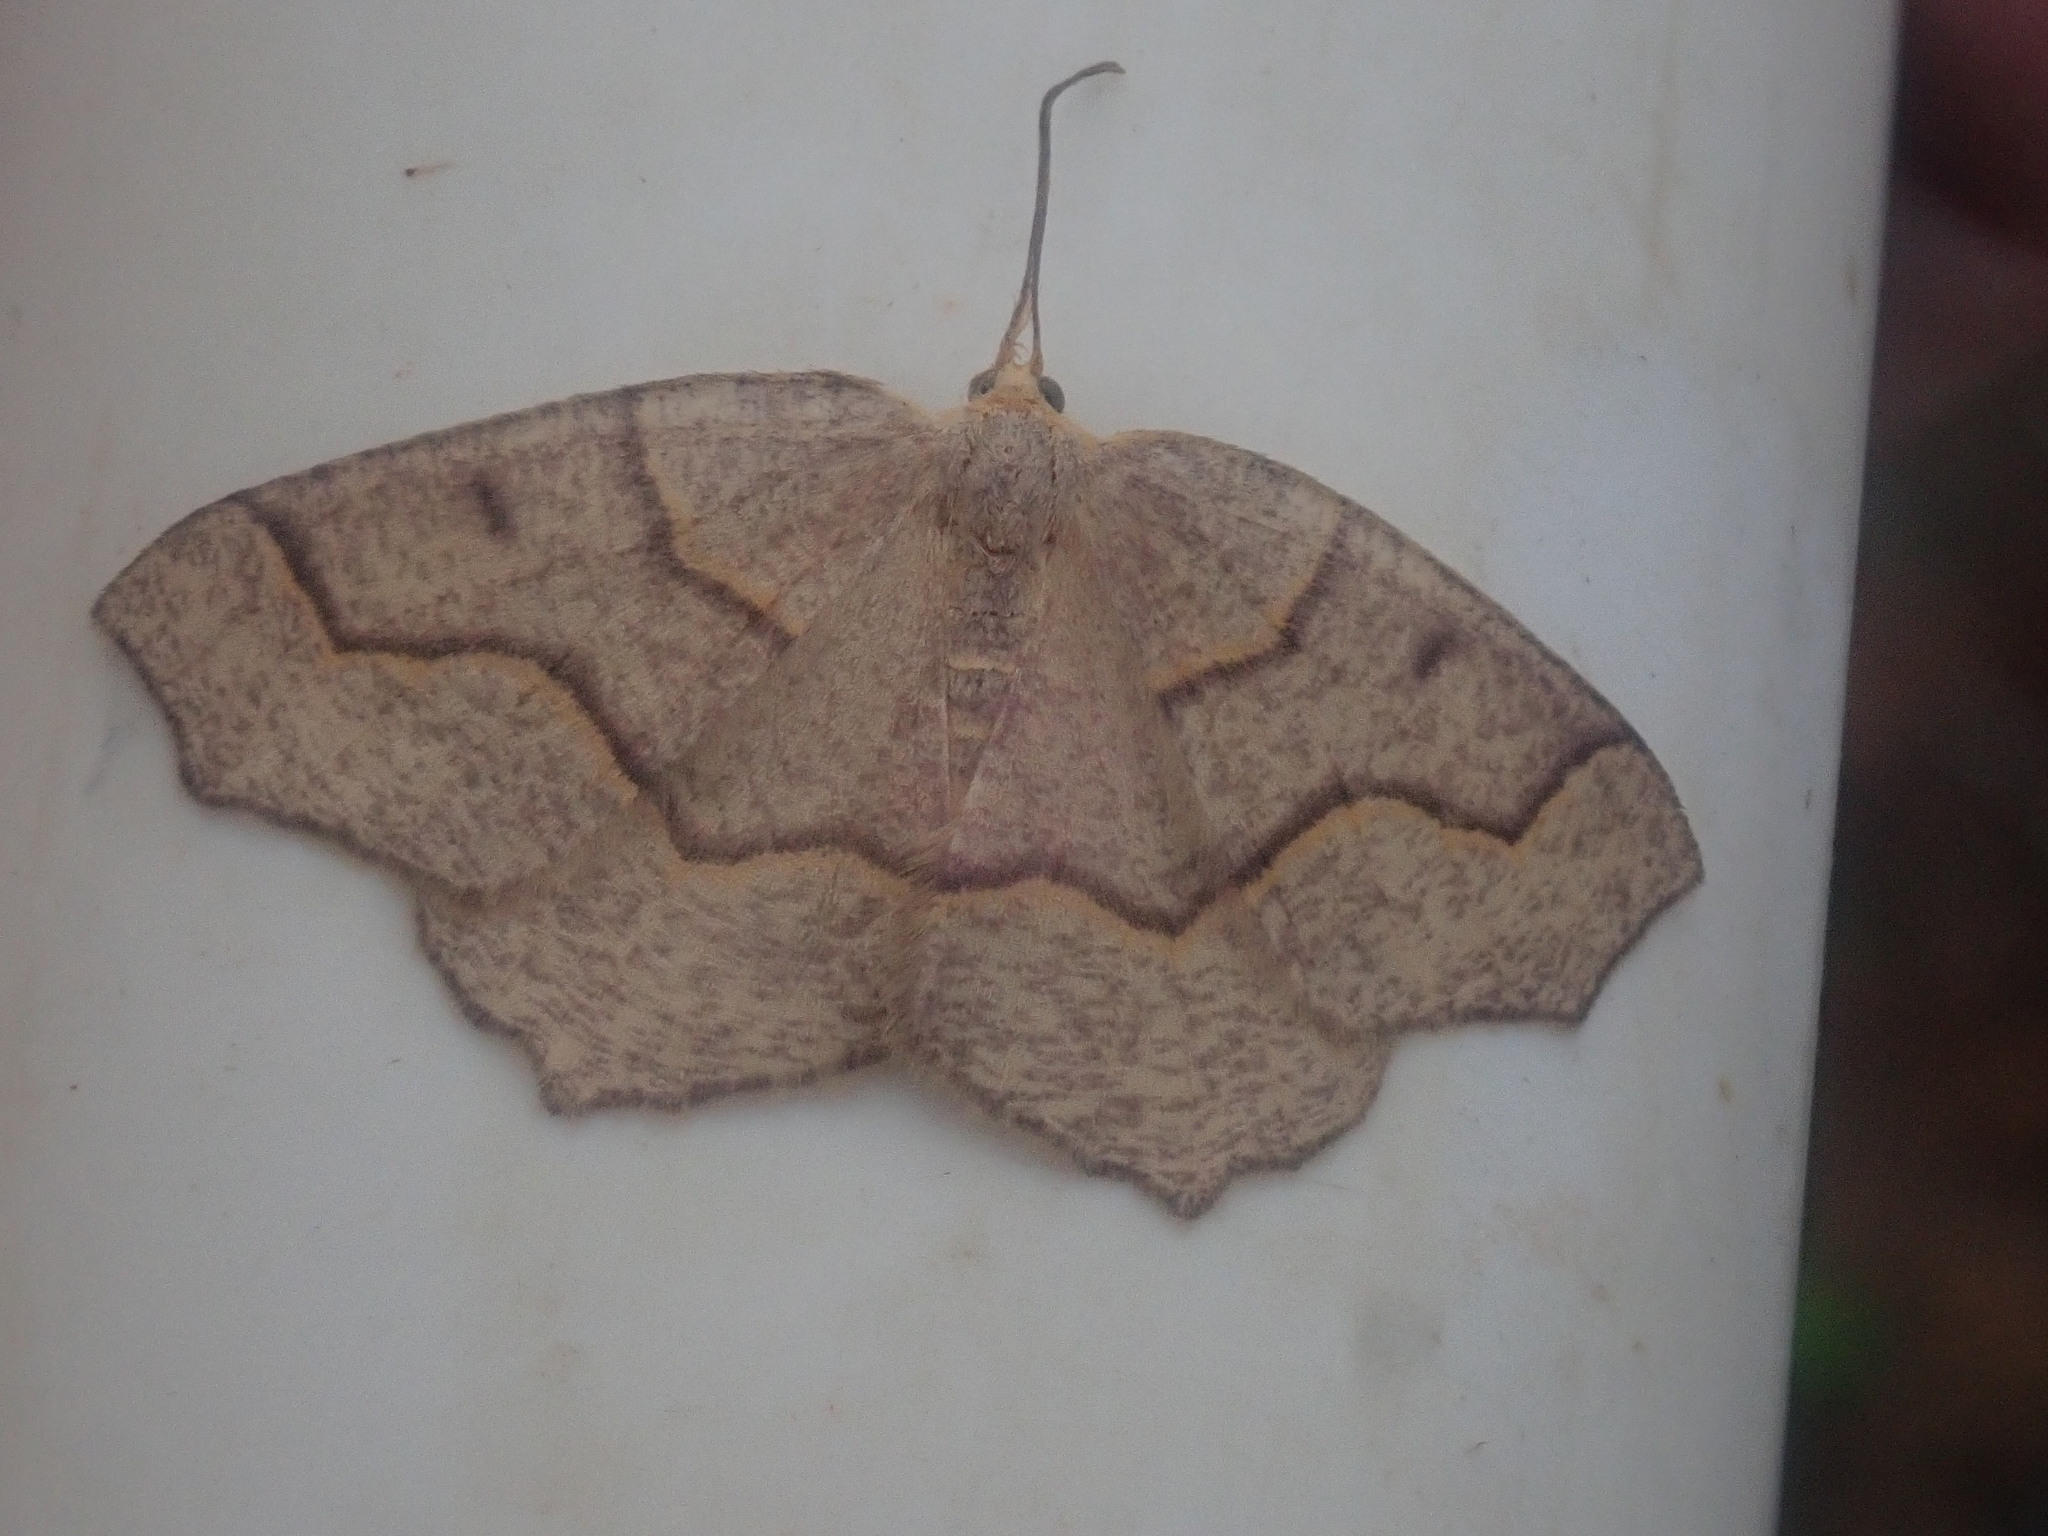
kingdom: Animalia
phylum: Arthropoda
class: Insecta
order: Lepidoptera
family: Geometridae
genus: Lambdina
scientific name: Lambdina fiscellaria
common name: Hemlock looper
